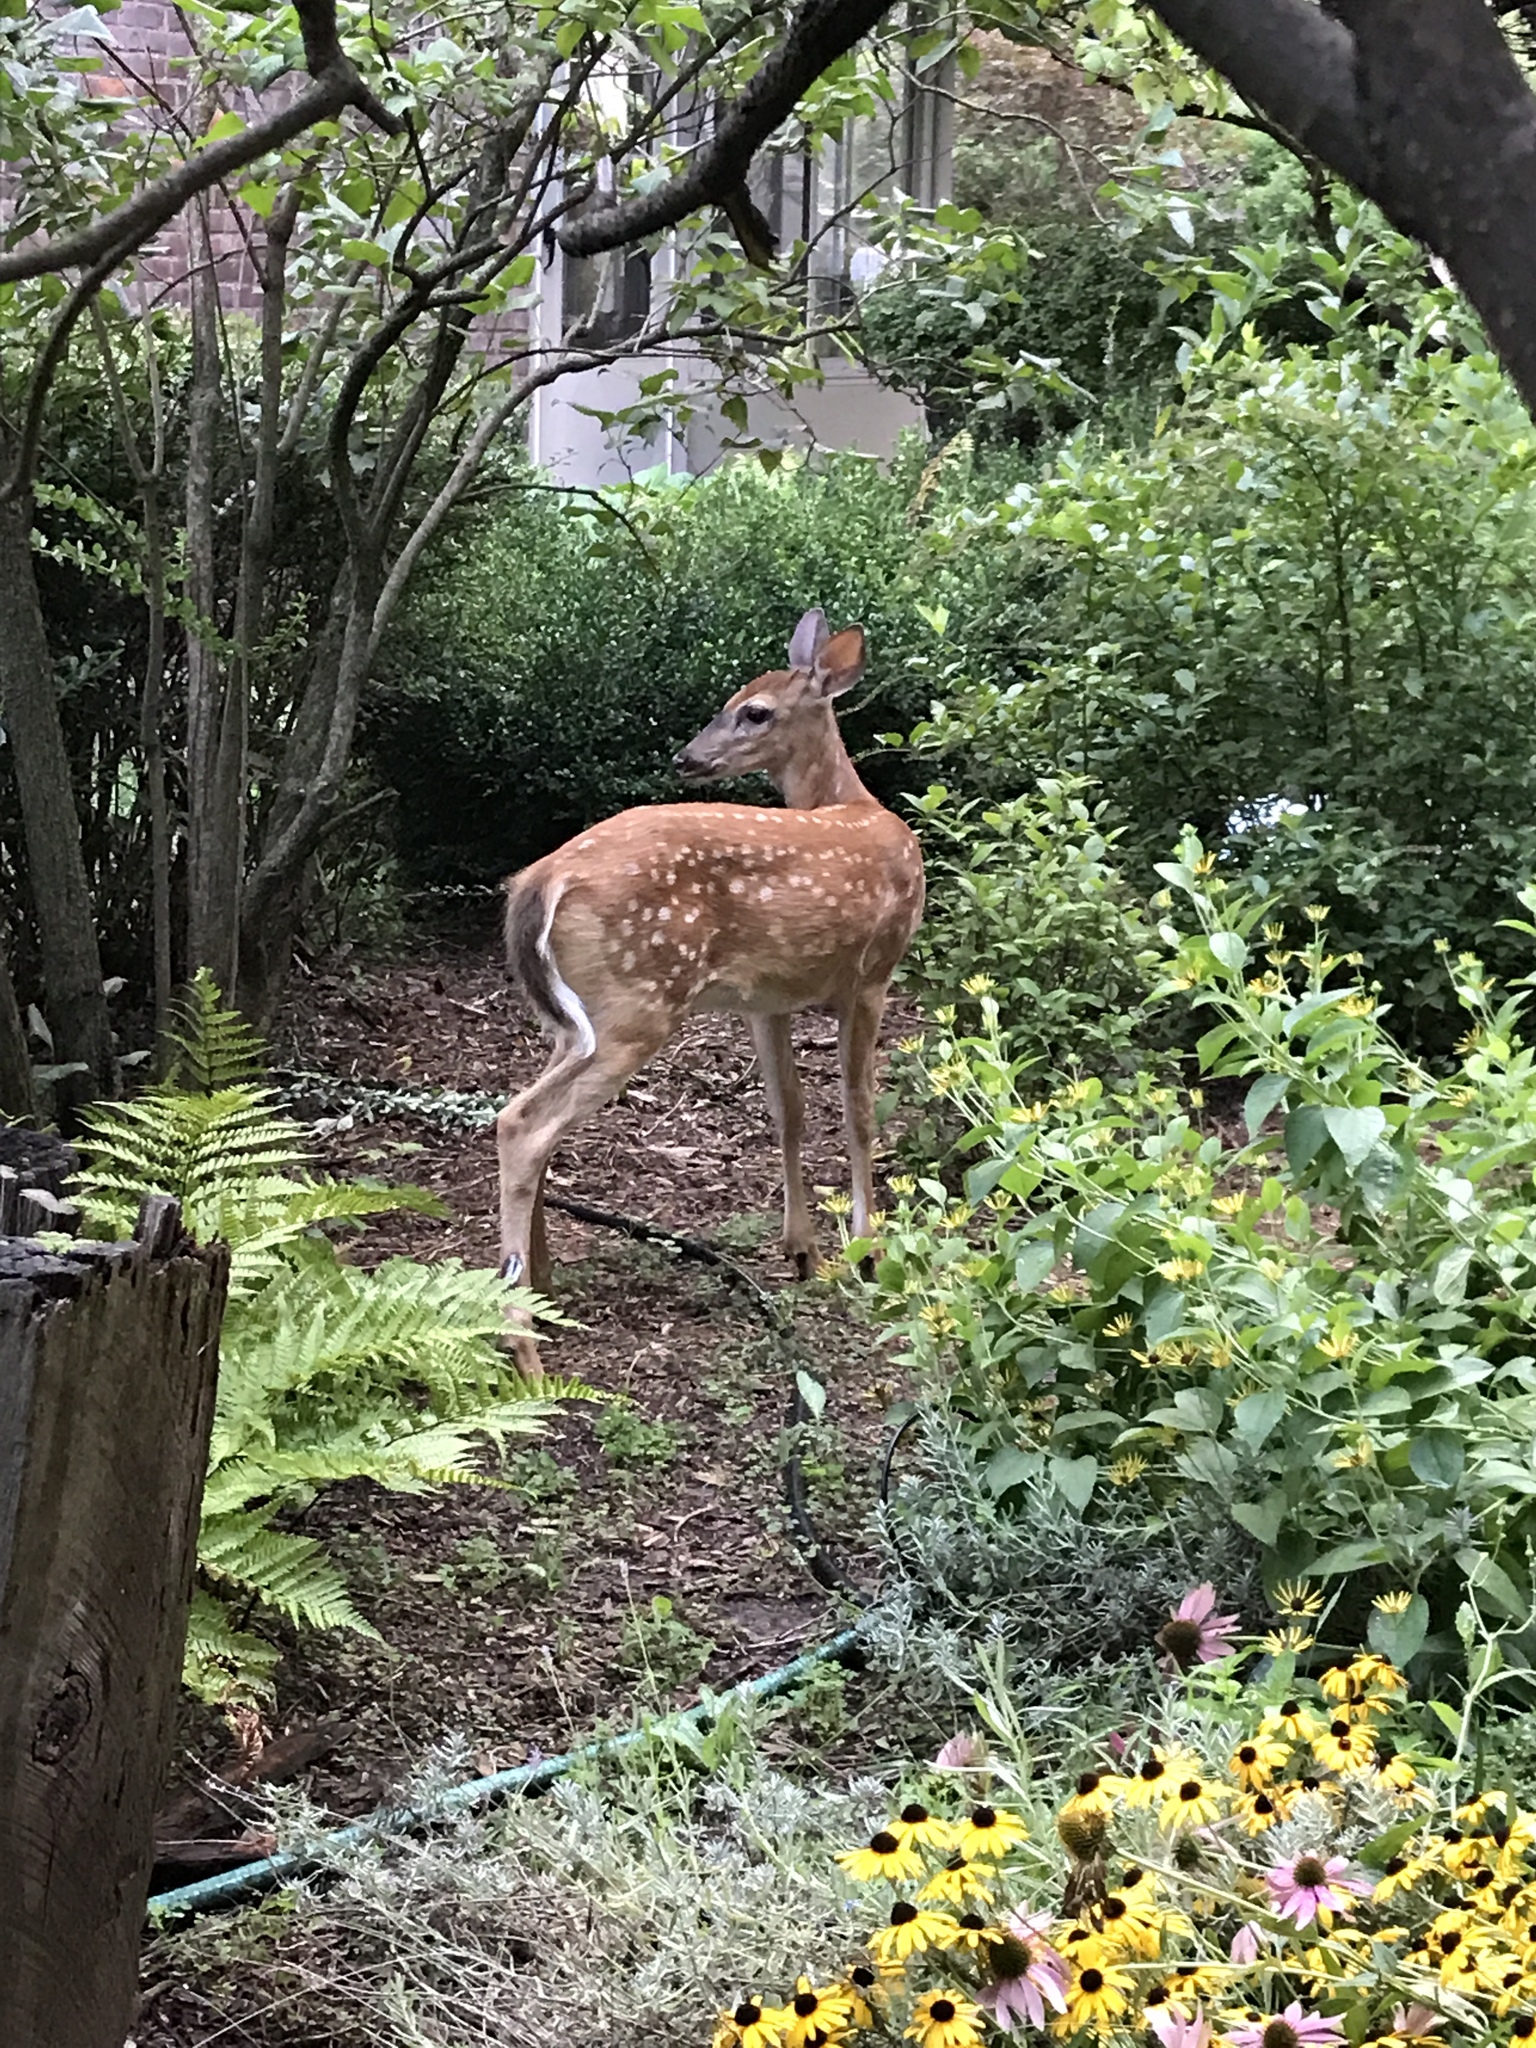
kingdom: Animalia
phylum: Chordata
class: Mammalia
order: Artiodactyla
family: Cervidae
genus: Odocoileus
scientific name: Odocoileus virginianus
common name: White-tailed deer
